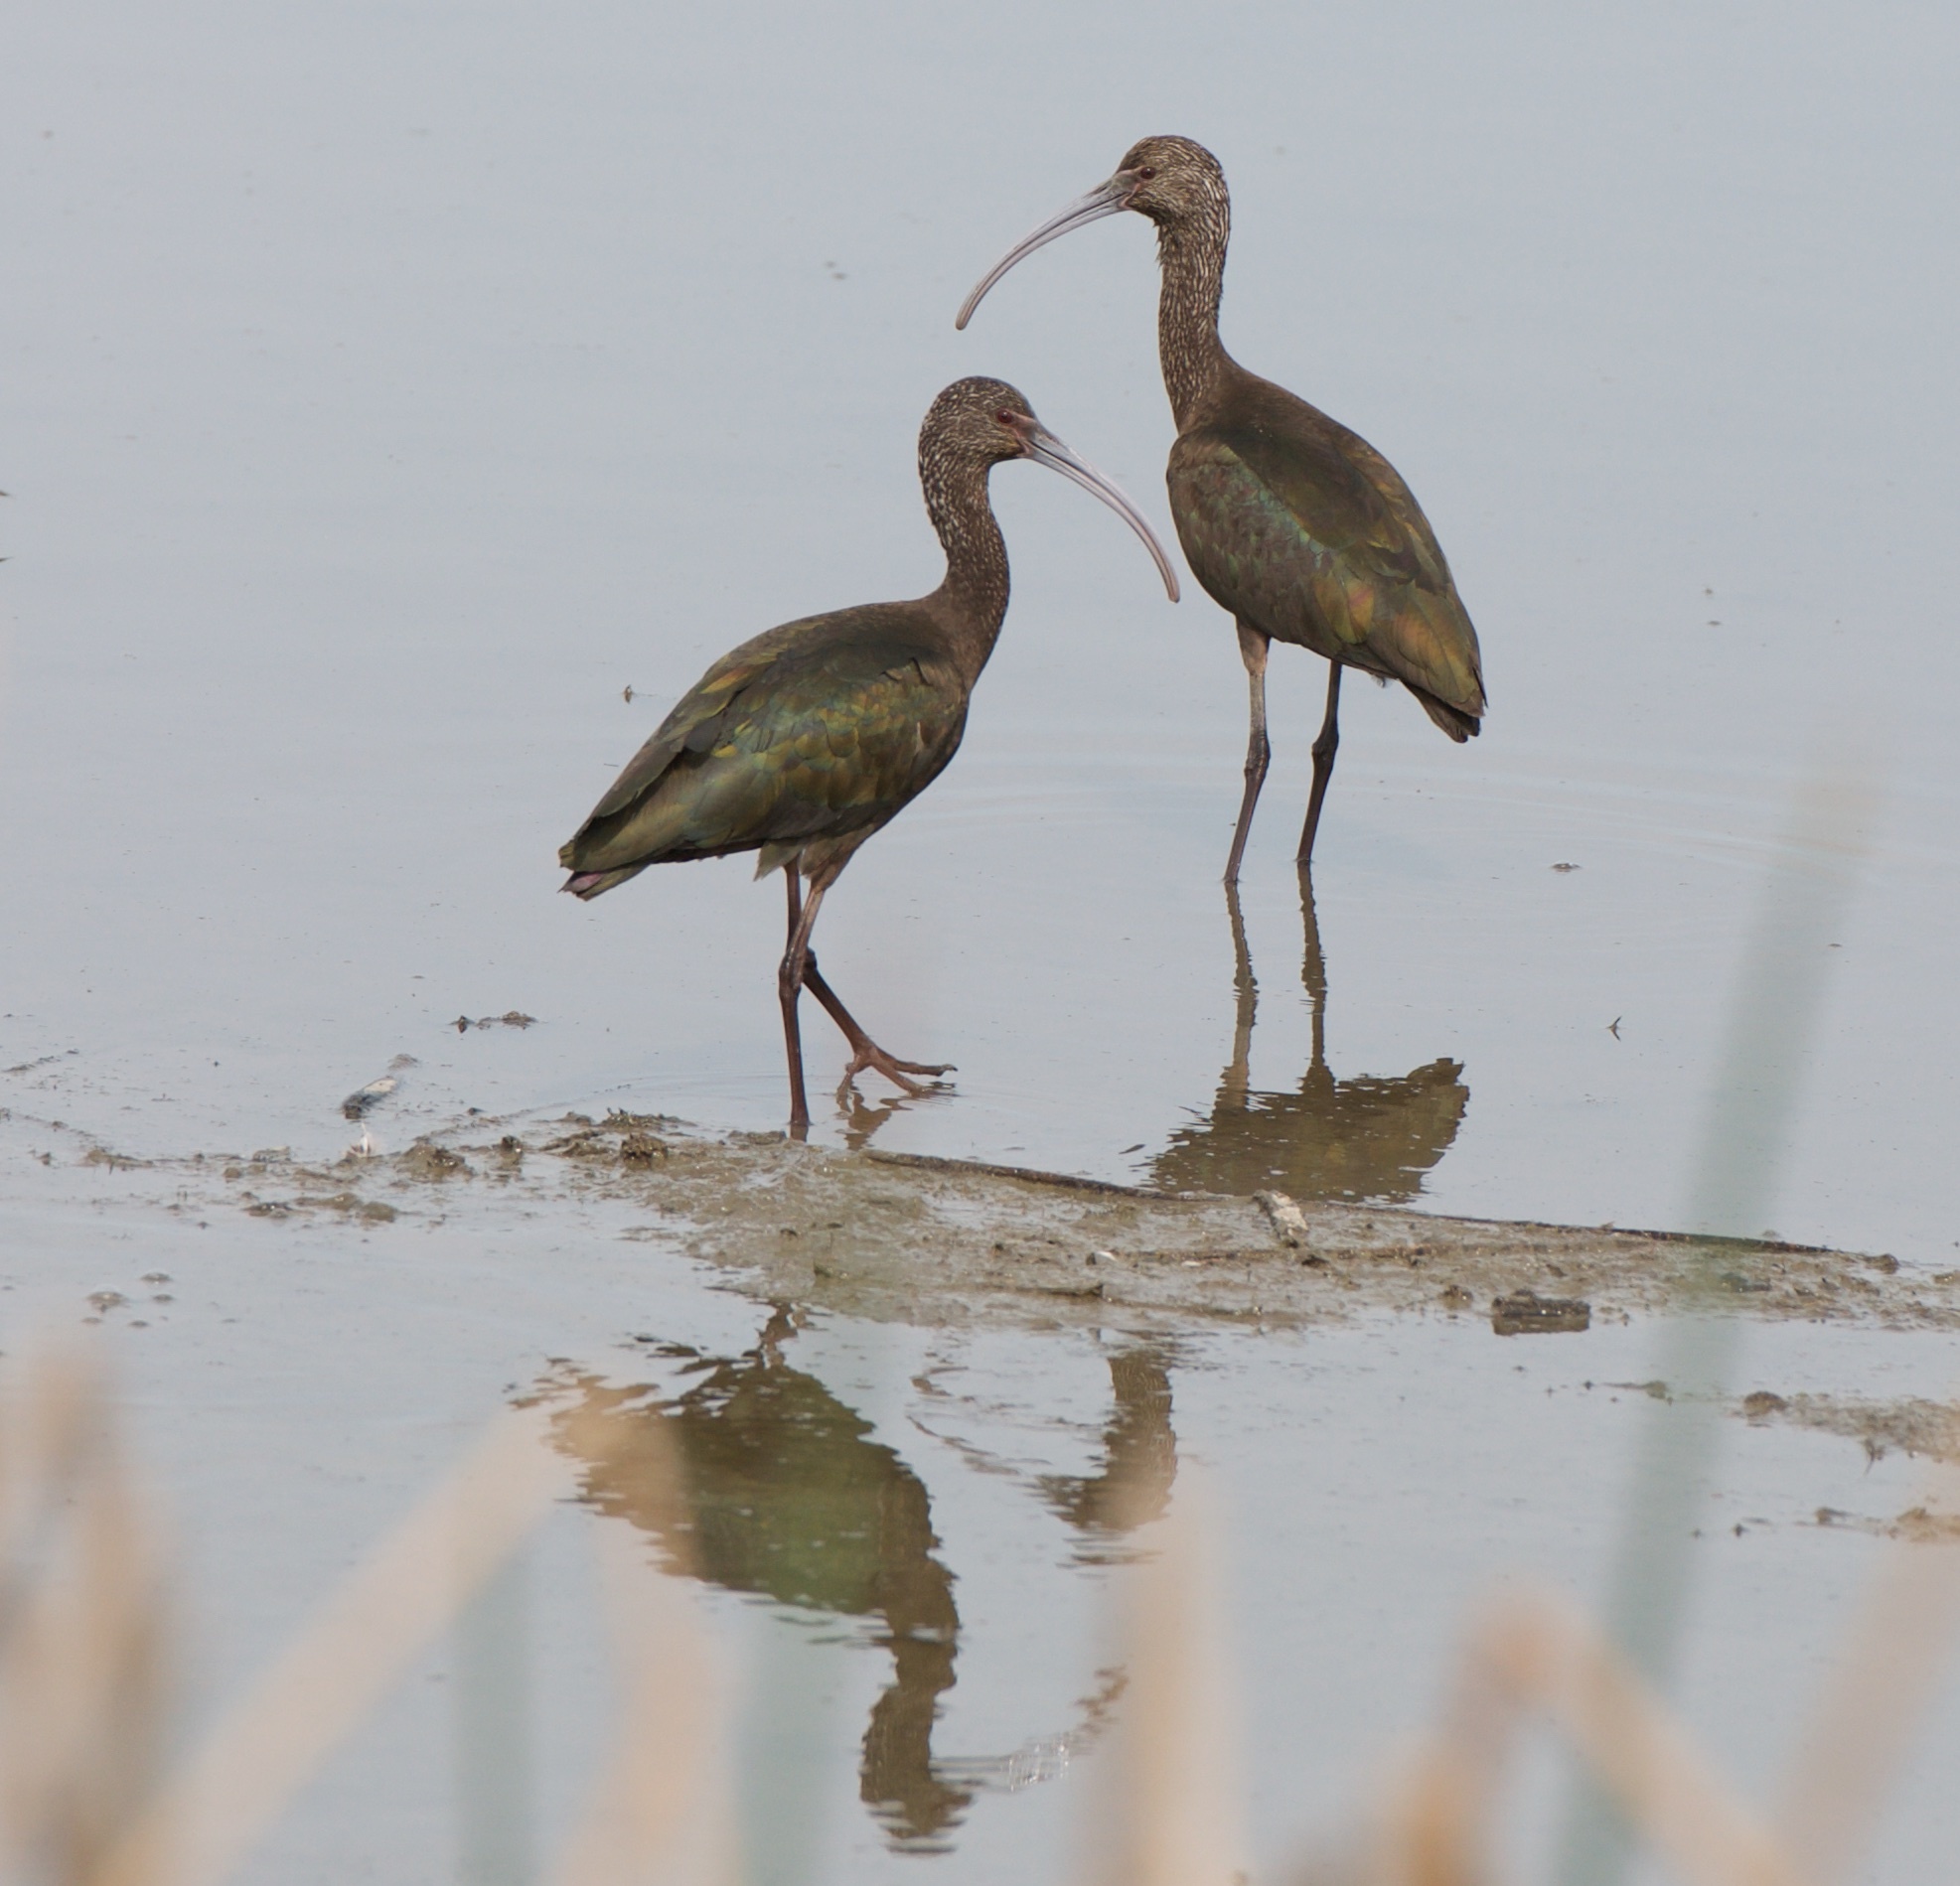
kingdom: Animalia
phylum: Chordata
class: Aves
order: Pelecaniformes
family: Threskiornithidae
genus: Plegadis
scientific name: Plegadis chihi
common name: White-faced ibis
